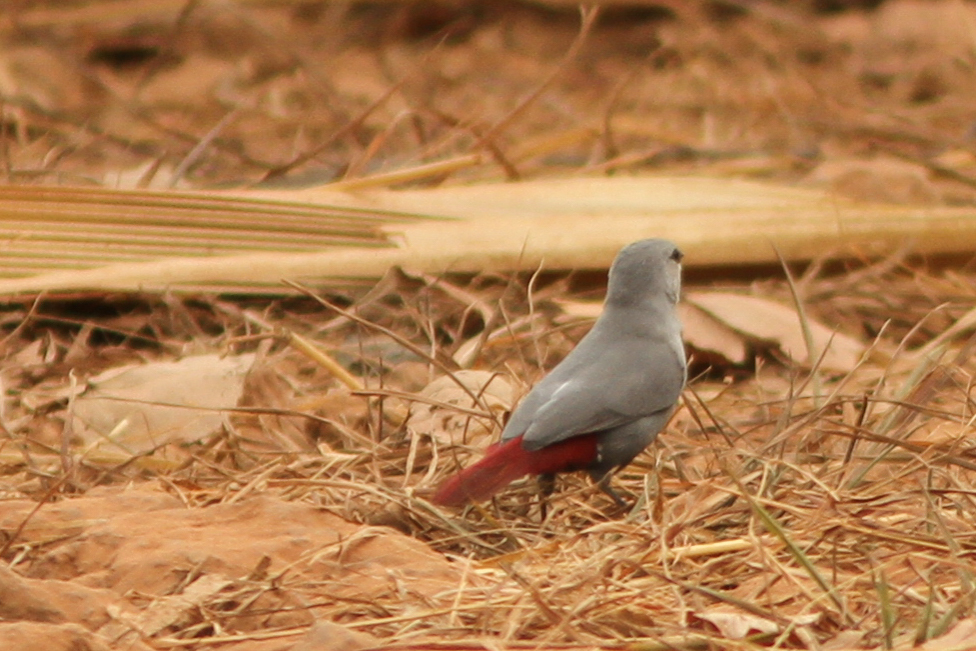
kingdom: Animalia
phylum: Chordata
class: Aves
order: Passeriformes
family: Estrildidae
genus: Estrilda
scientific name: Estrilda caerulescens
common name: Lavender waxbill
